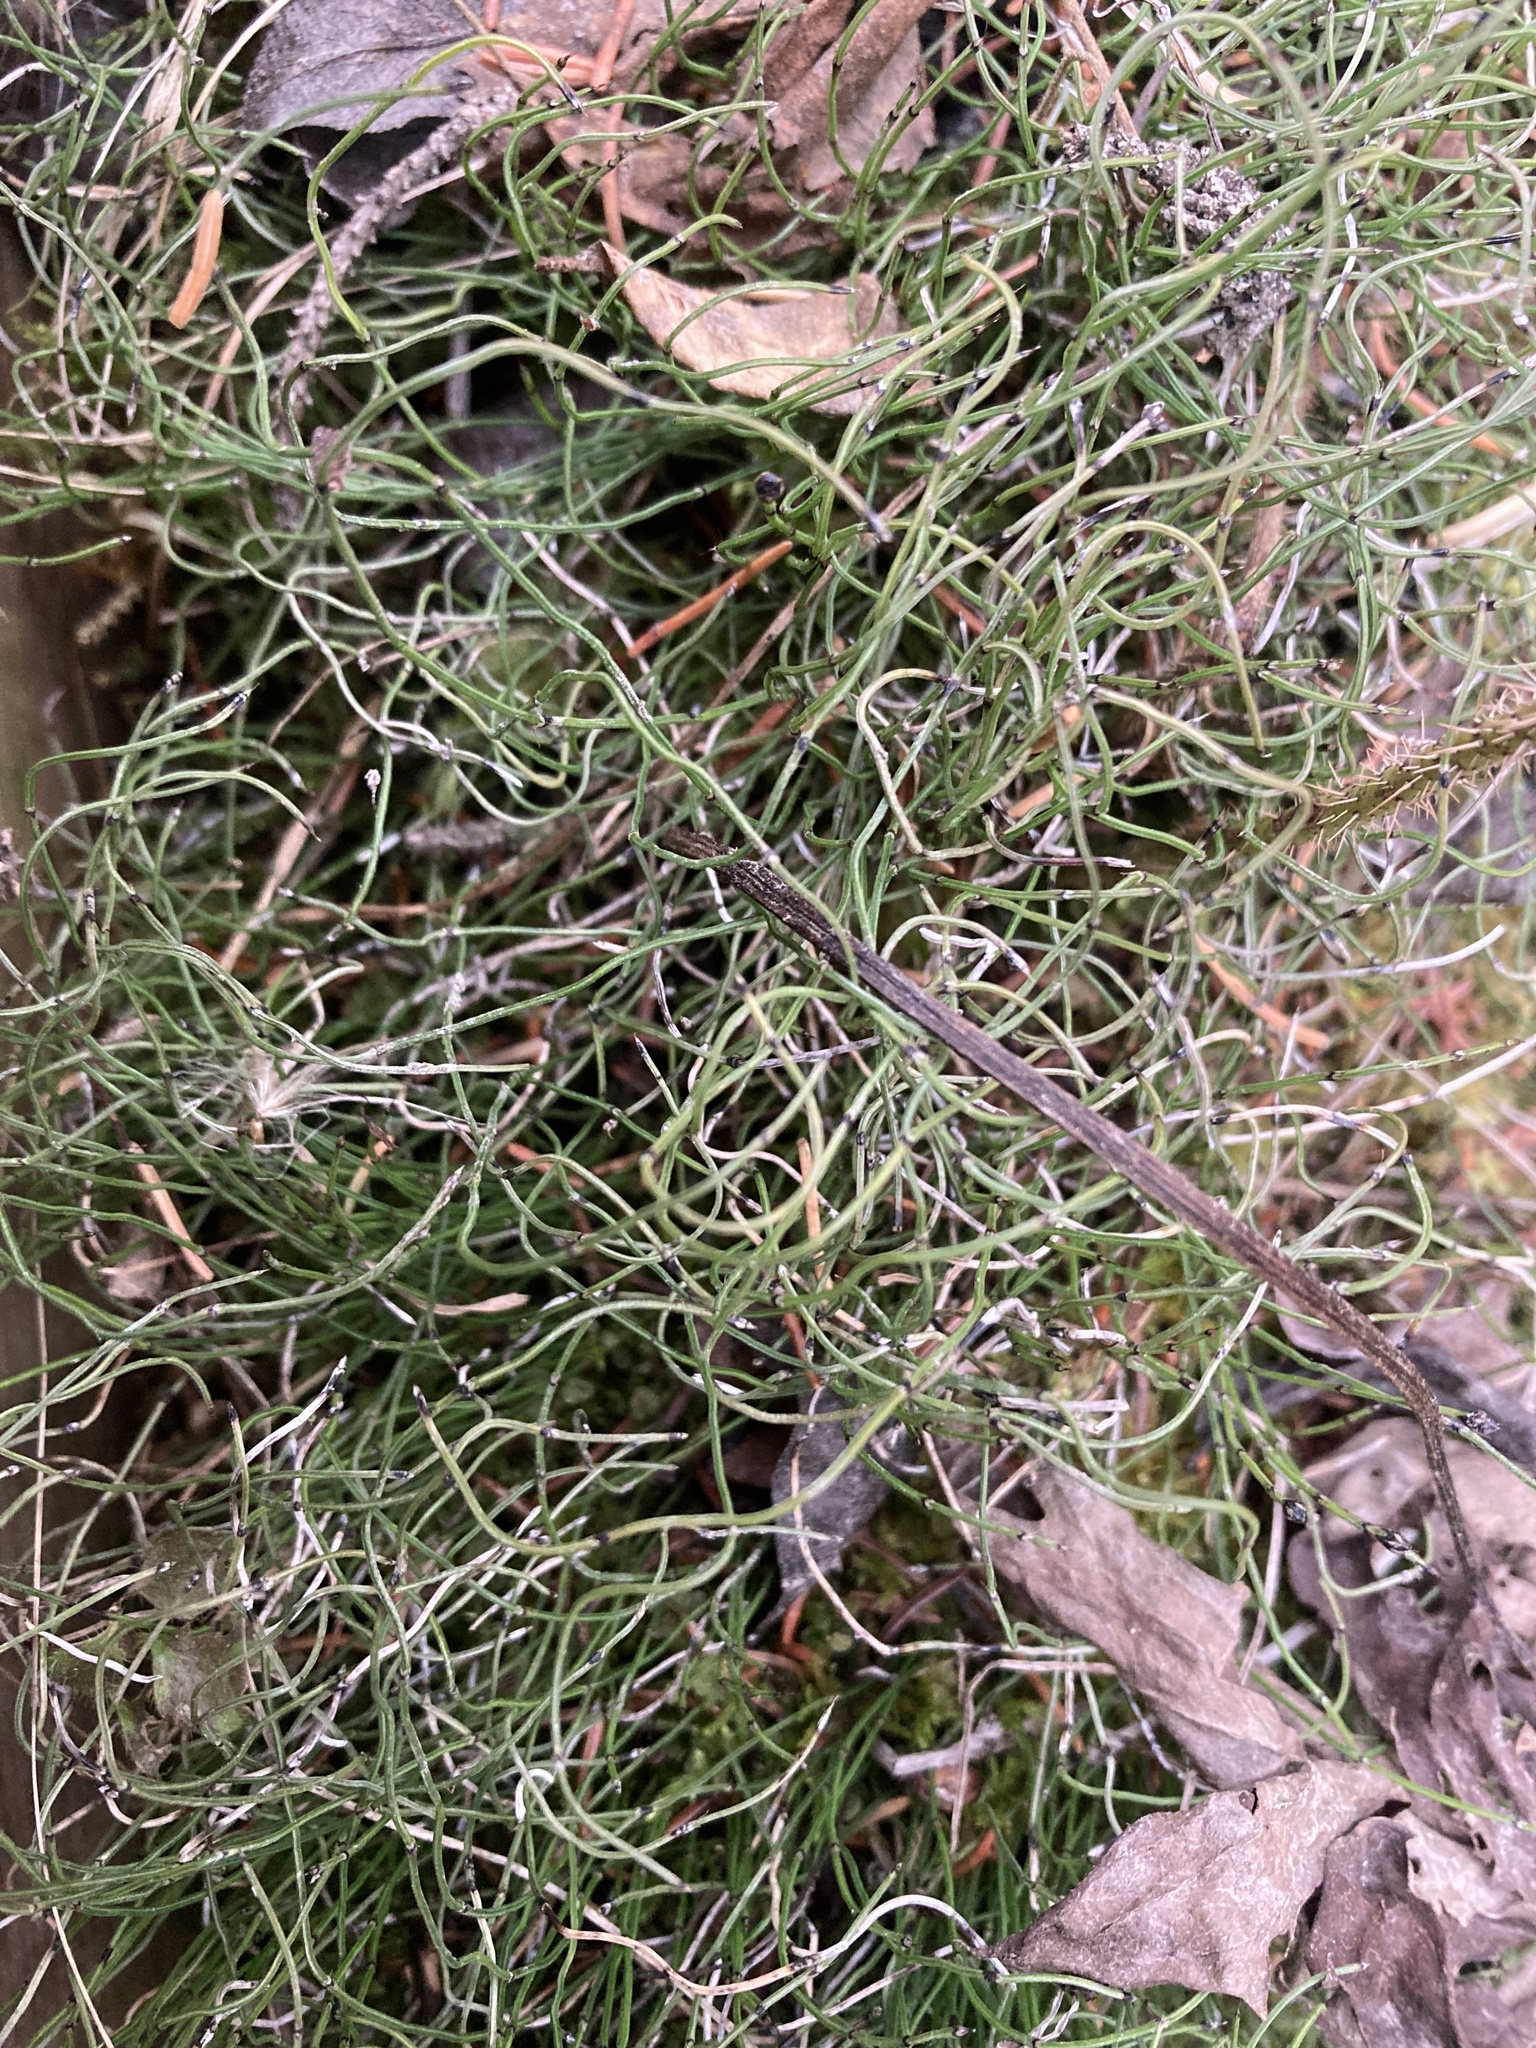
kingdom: Plantae
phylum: Tracheophyta
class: Polypodiopsida
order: Equisetales
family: Equisetaceae
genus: Equisetum
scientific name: Equisetum scirpoides
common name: Delicate horsetail
